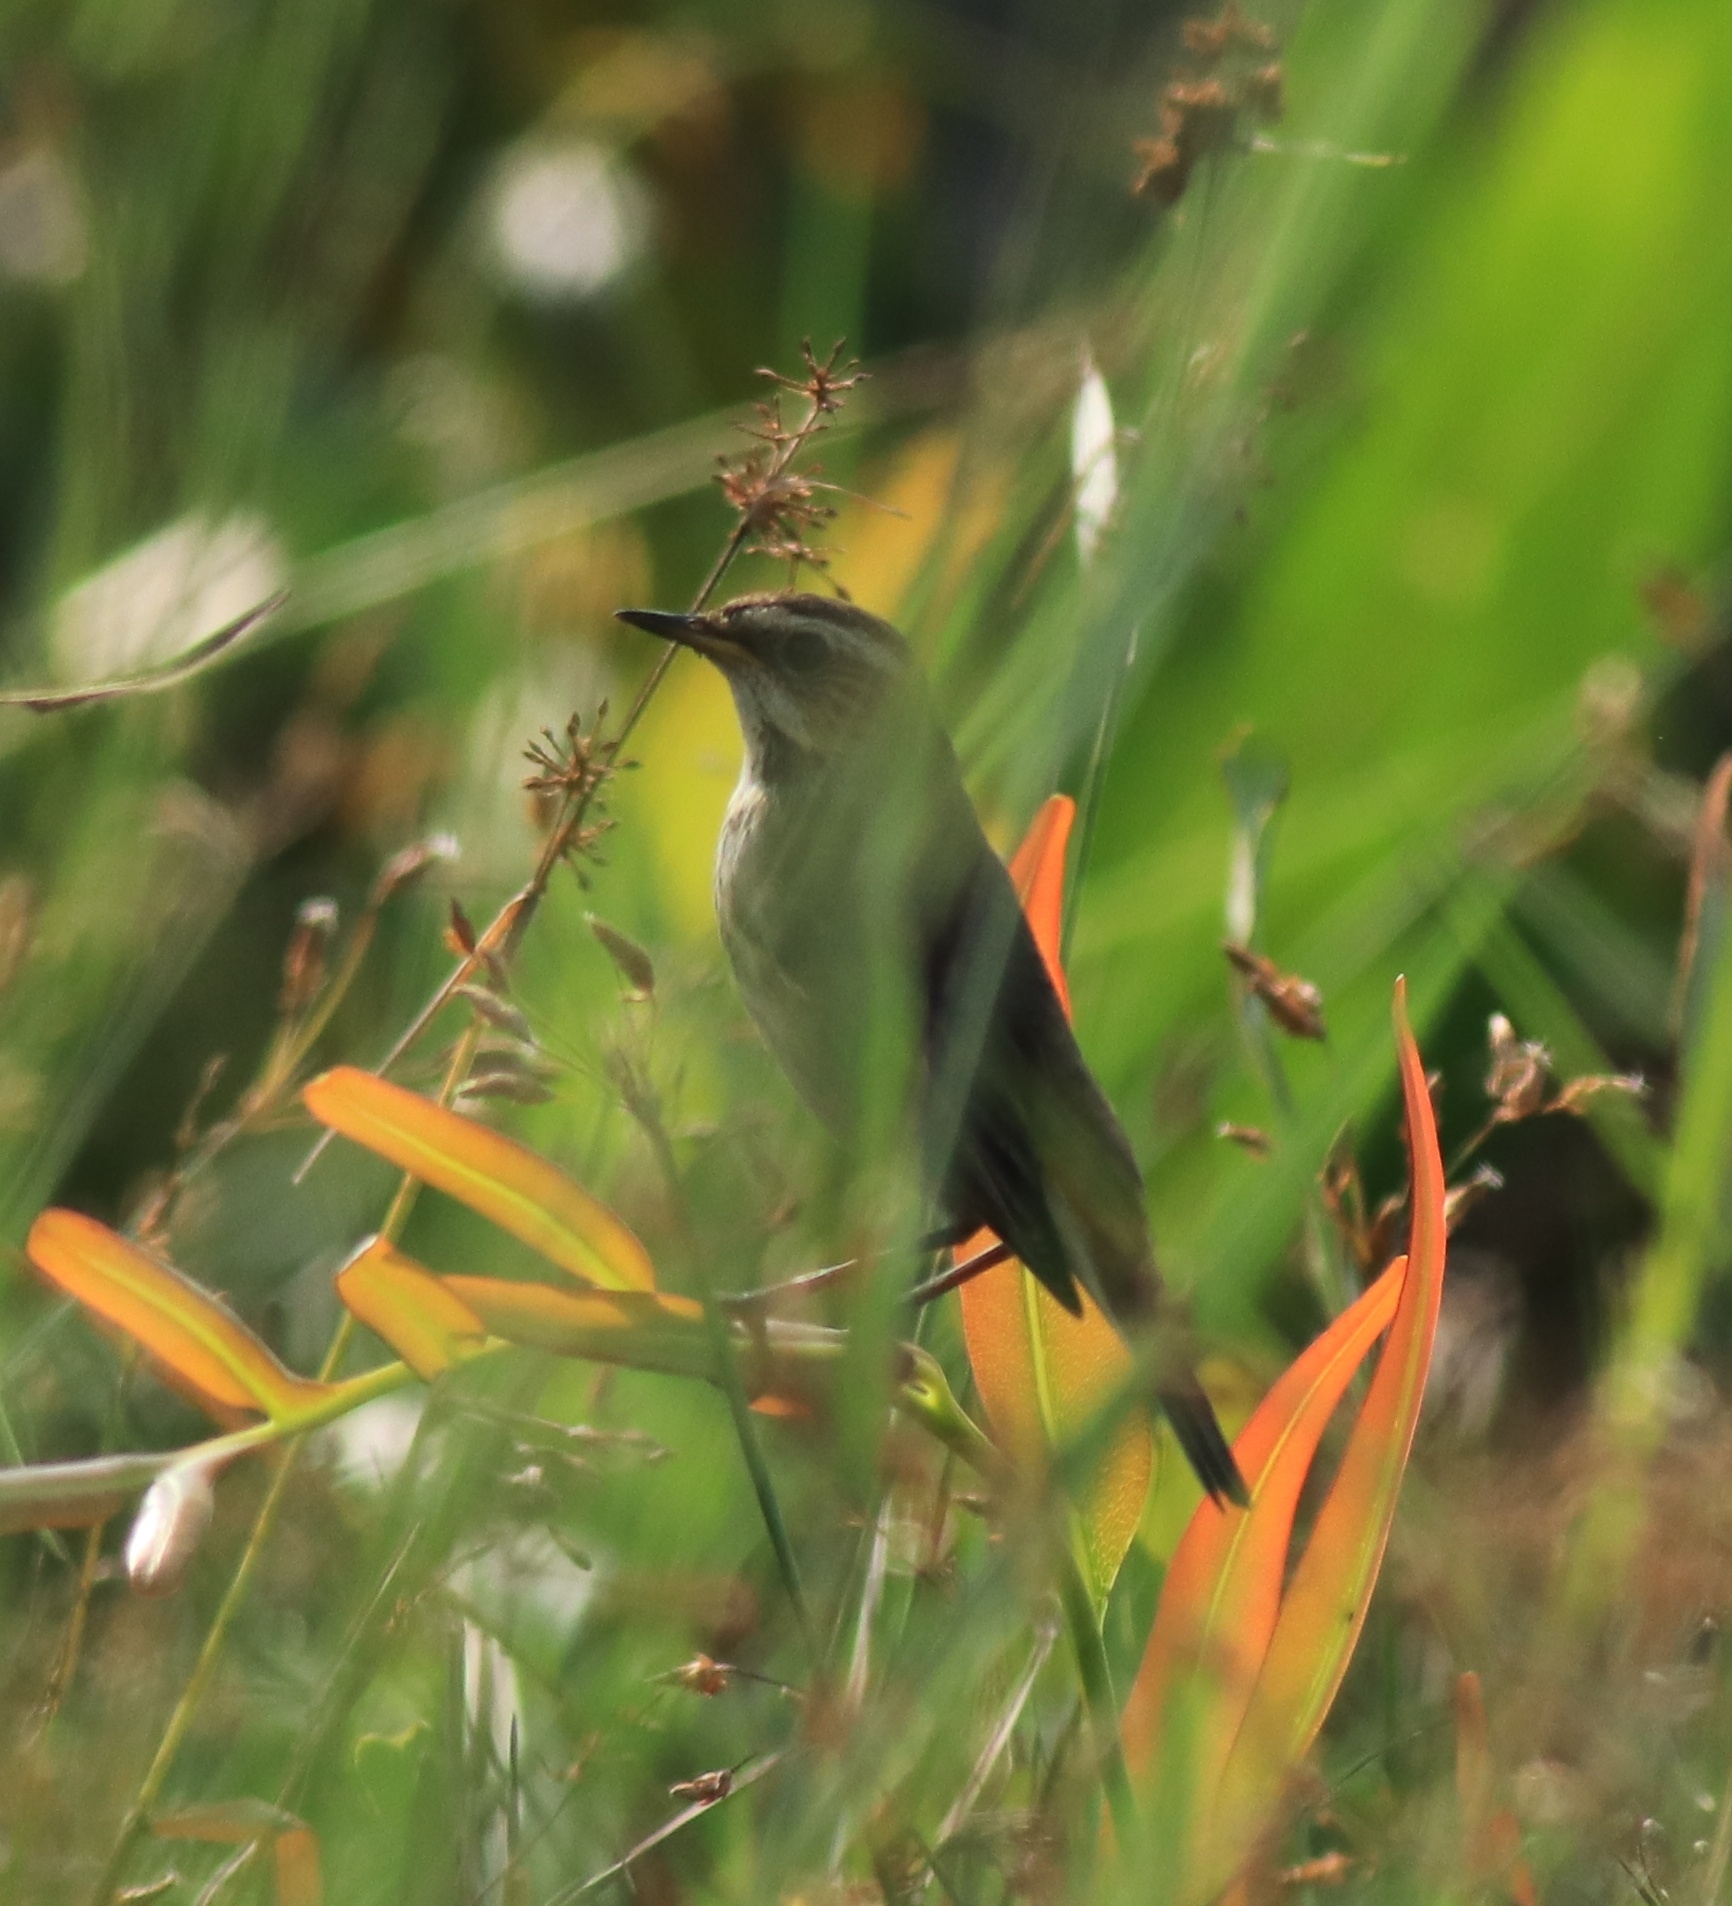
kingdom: Animalia
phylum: Chordata
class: Aves
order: Passeriformes
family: Muscicapidae
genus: Luscinia
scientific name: Luscinia svecica
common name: Bluethroat
